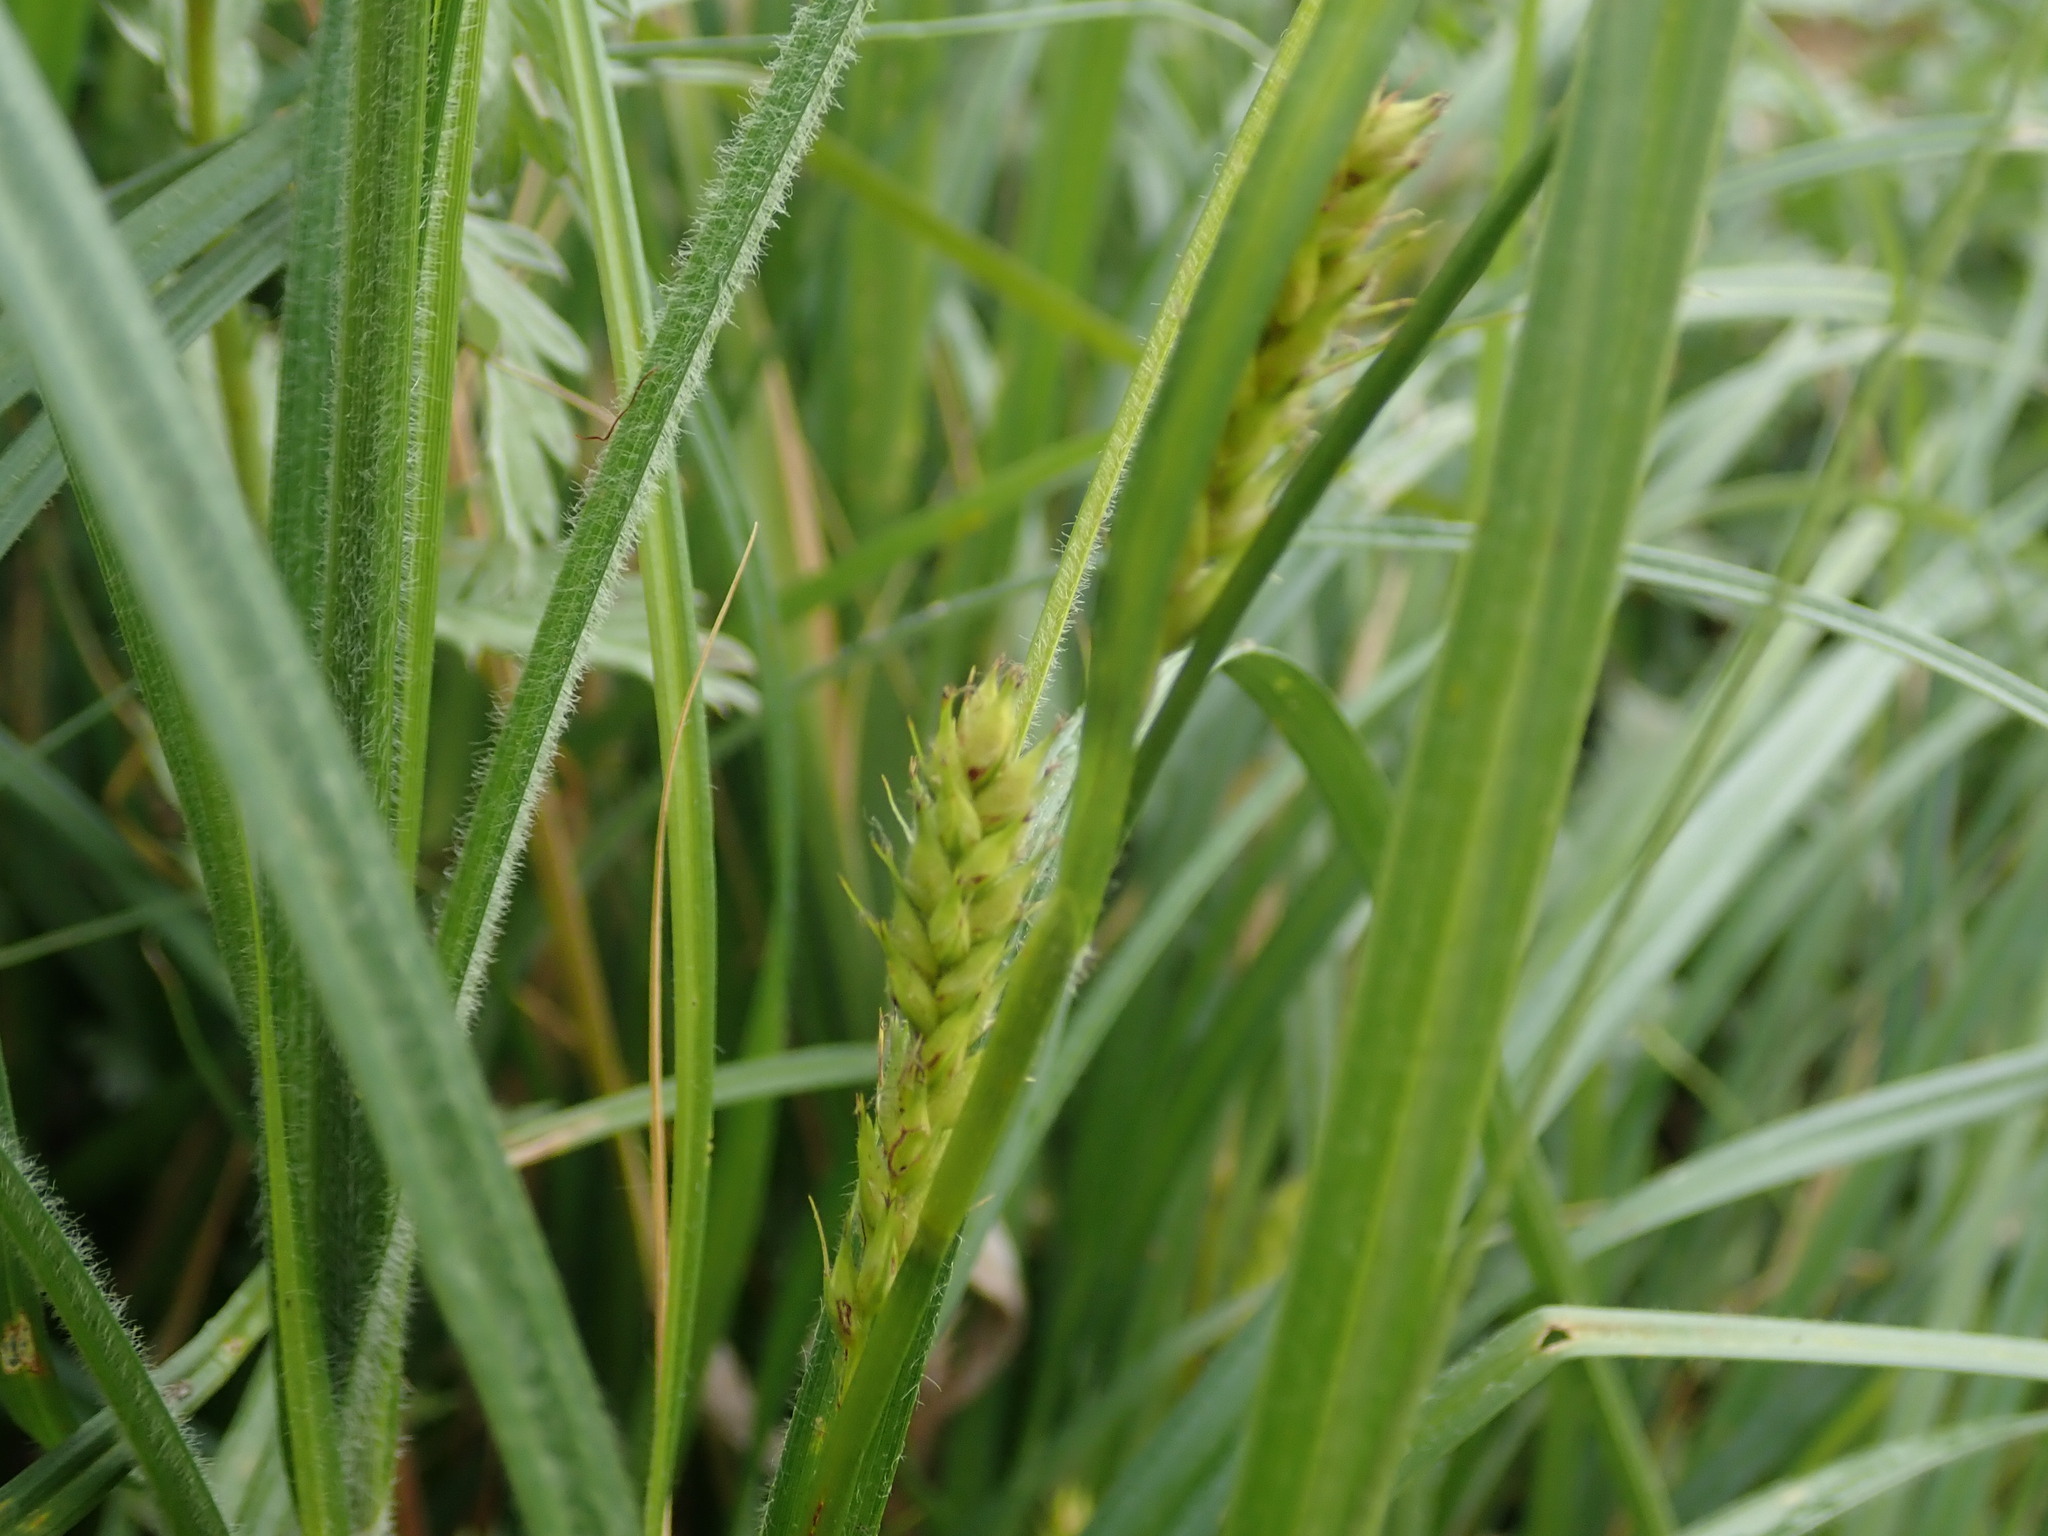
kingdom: Plantae
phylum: Tracheophyta
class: Liliopsida
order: Poales
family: Cyperaceae
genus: Carex
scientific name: Carex hirta
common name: Hairy sedge
